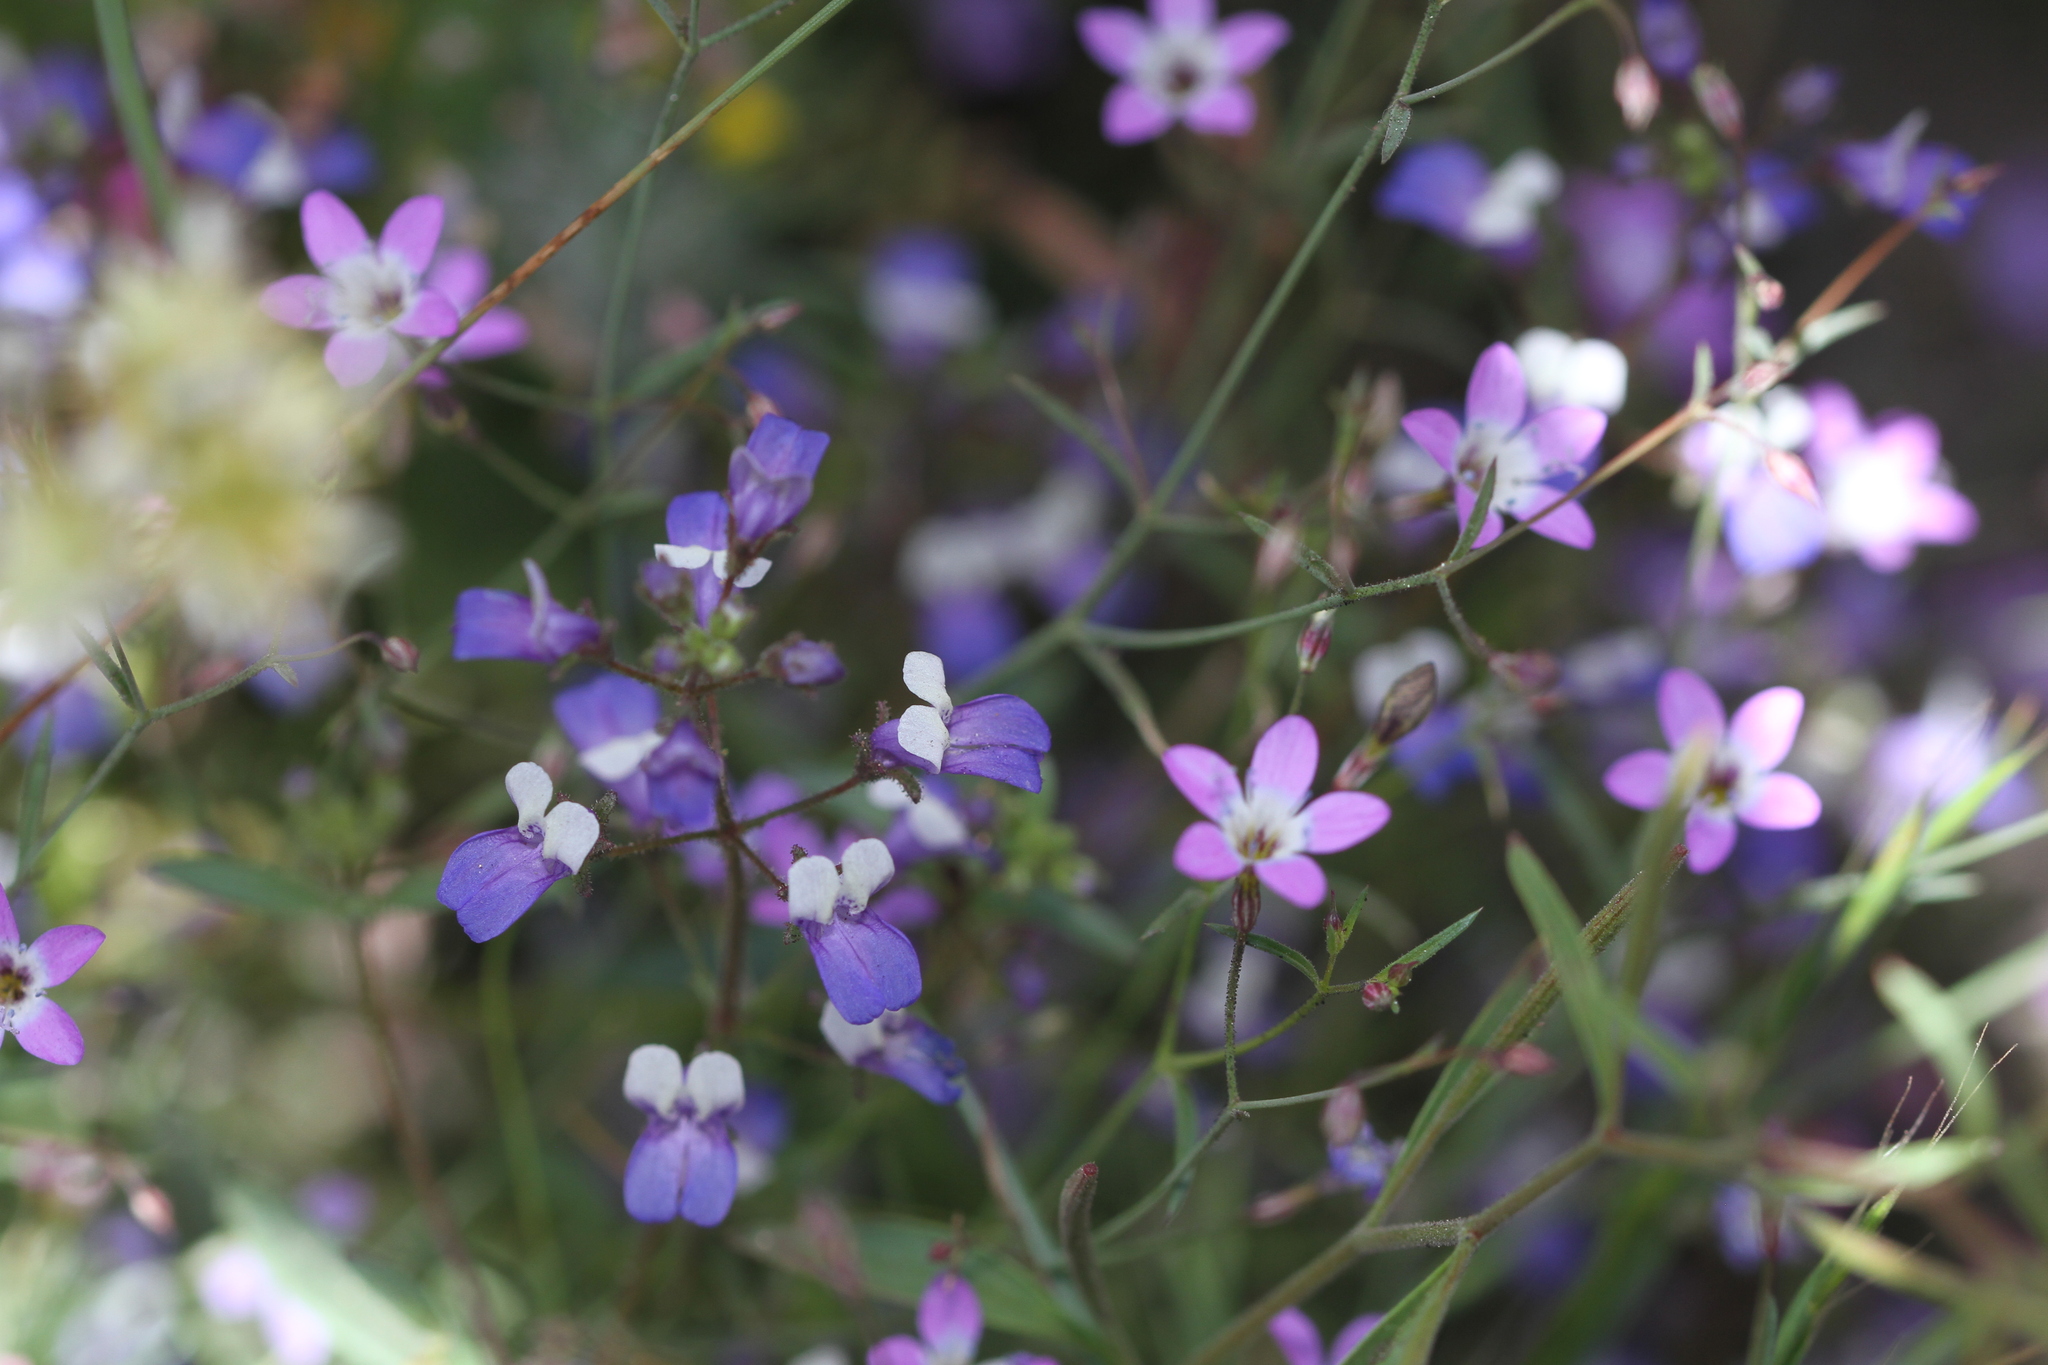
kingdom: Plantae
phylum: Tracheophyta
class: Magnoliopsida
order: Lamiales
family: Plantaginaceae
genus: Collinsia
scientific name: Collinsia torreyi
